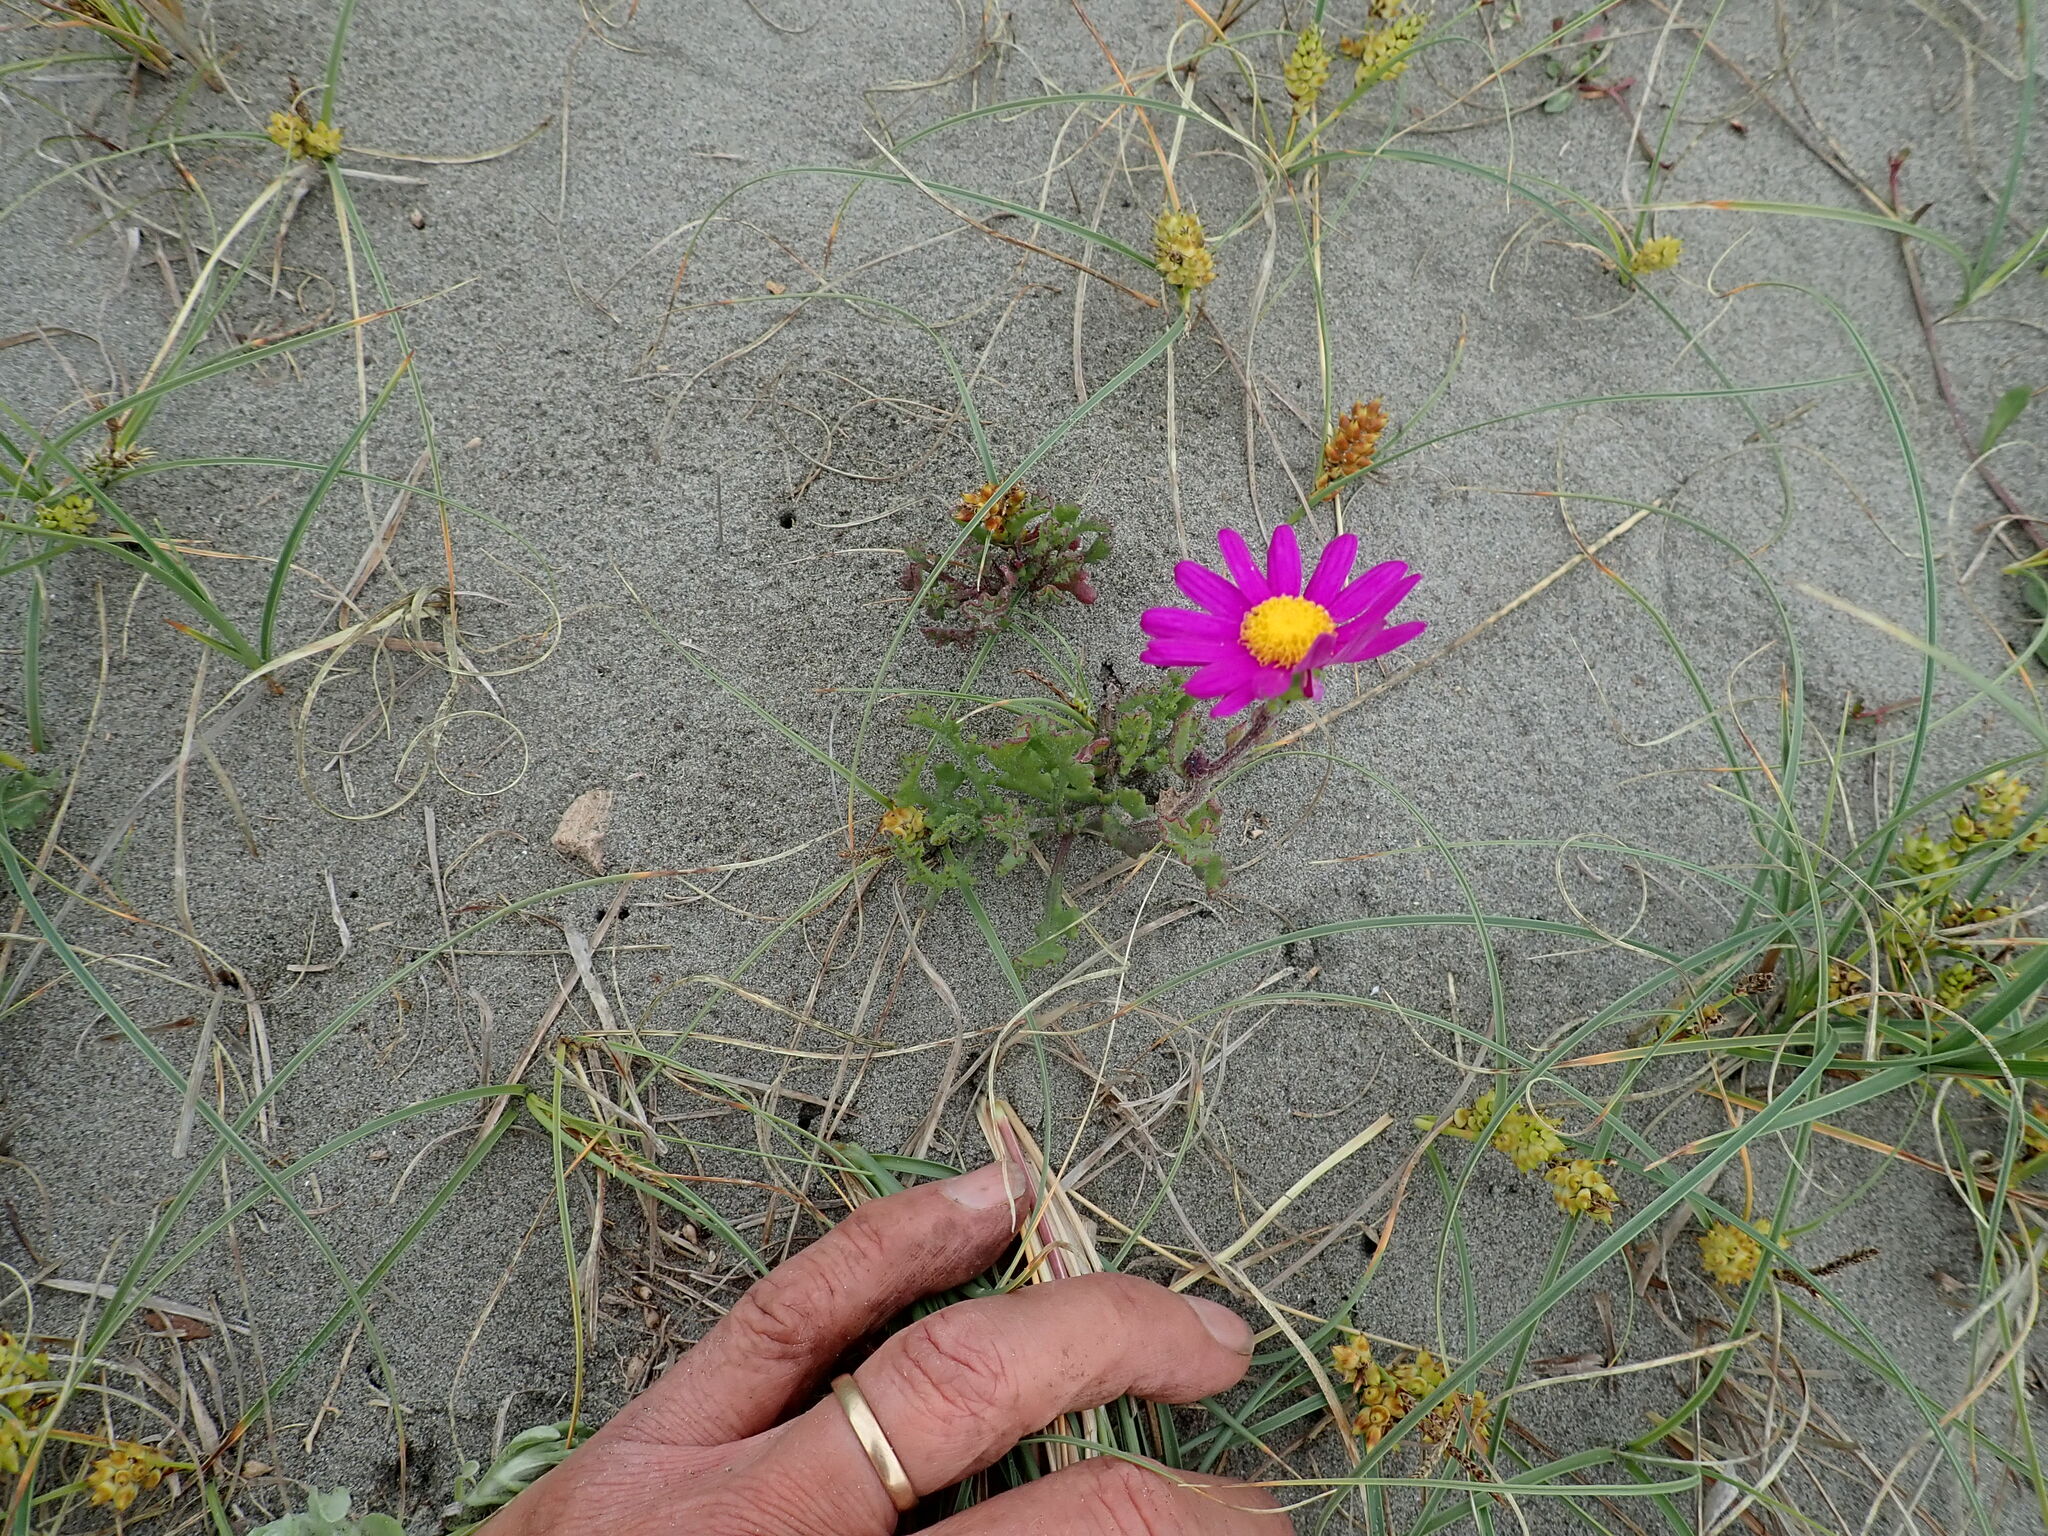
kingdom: Plantae
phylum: Tracheophyta
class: Magnoliopsida
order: Asterales
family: Asteraceae
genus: Senecio
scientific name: Senecio elegans
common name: Purple groundsel
